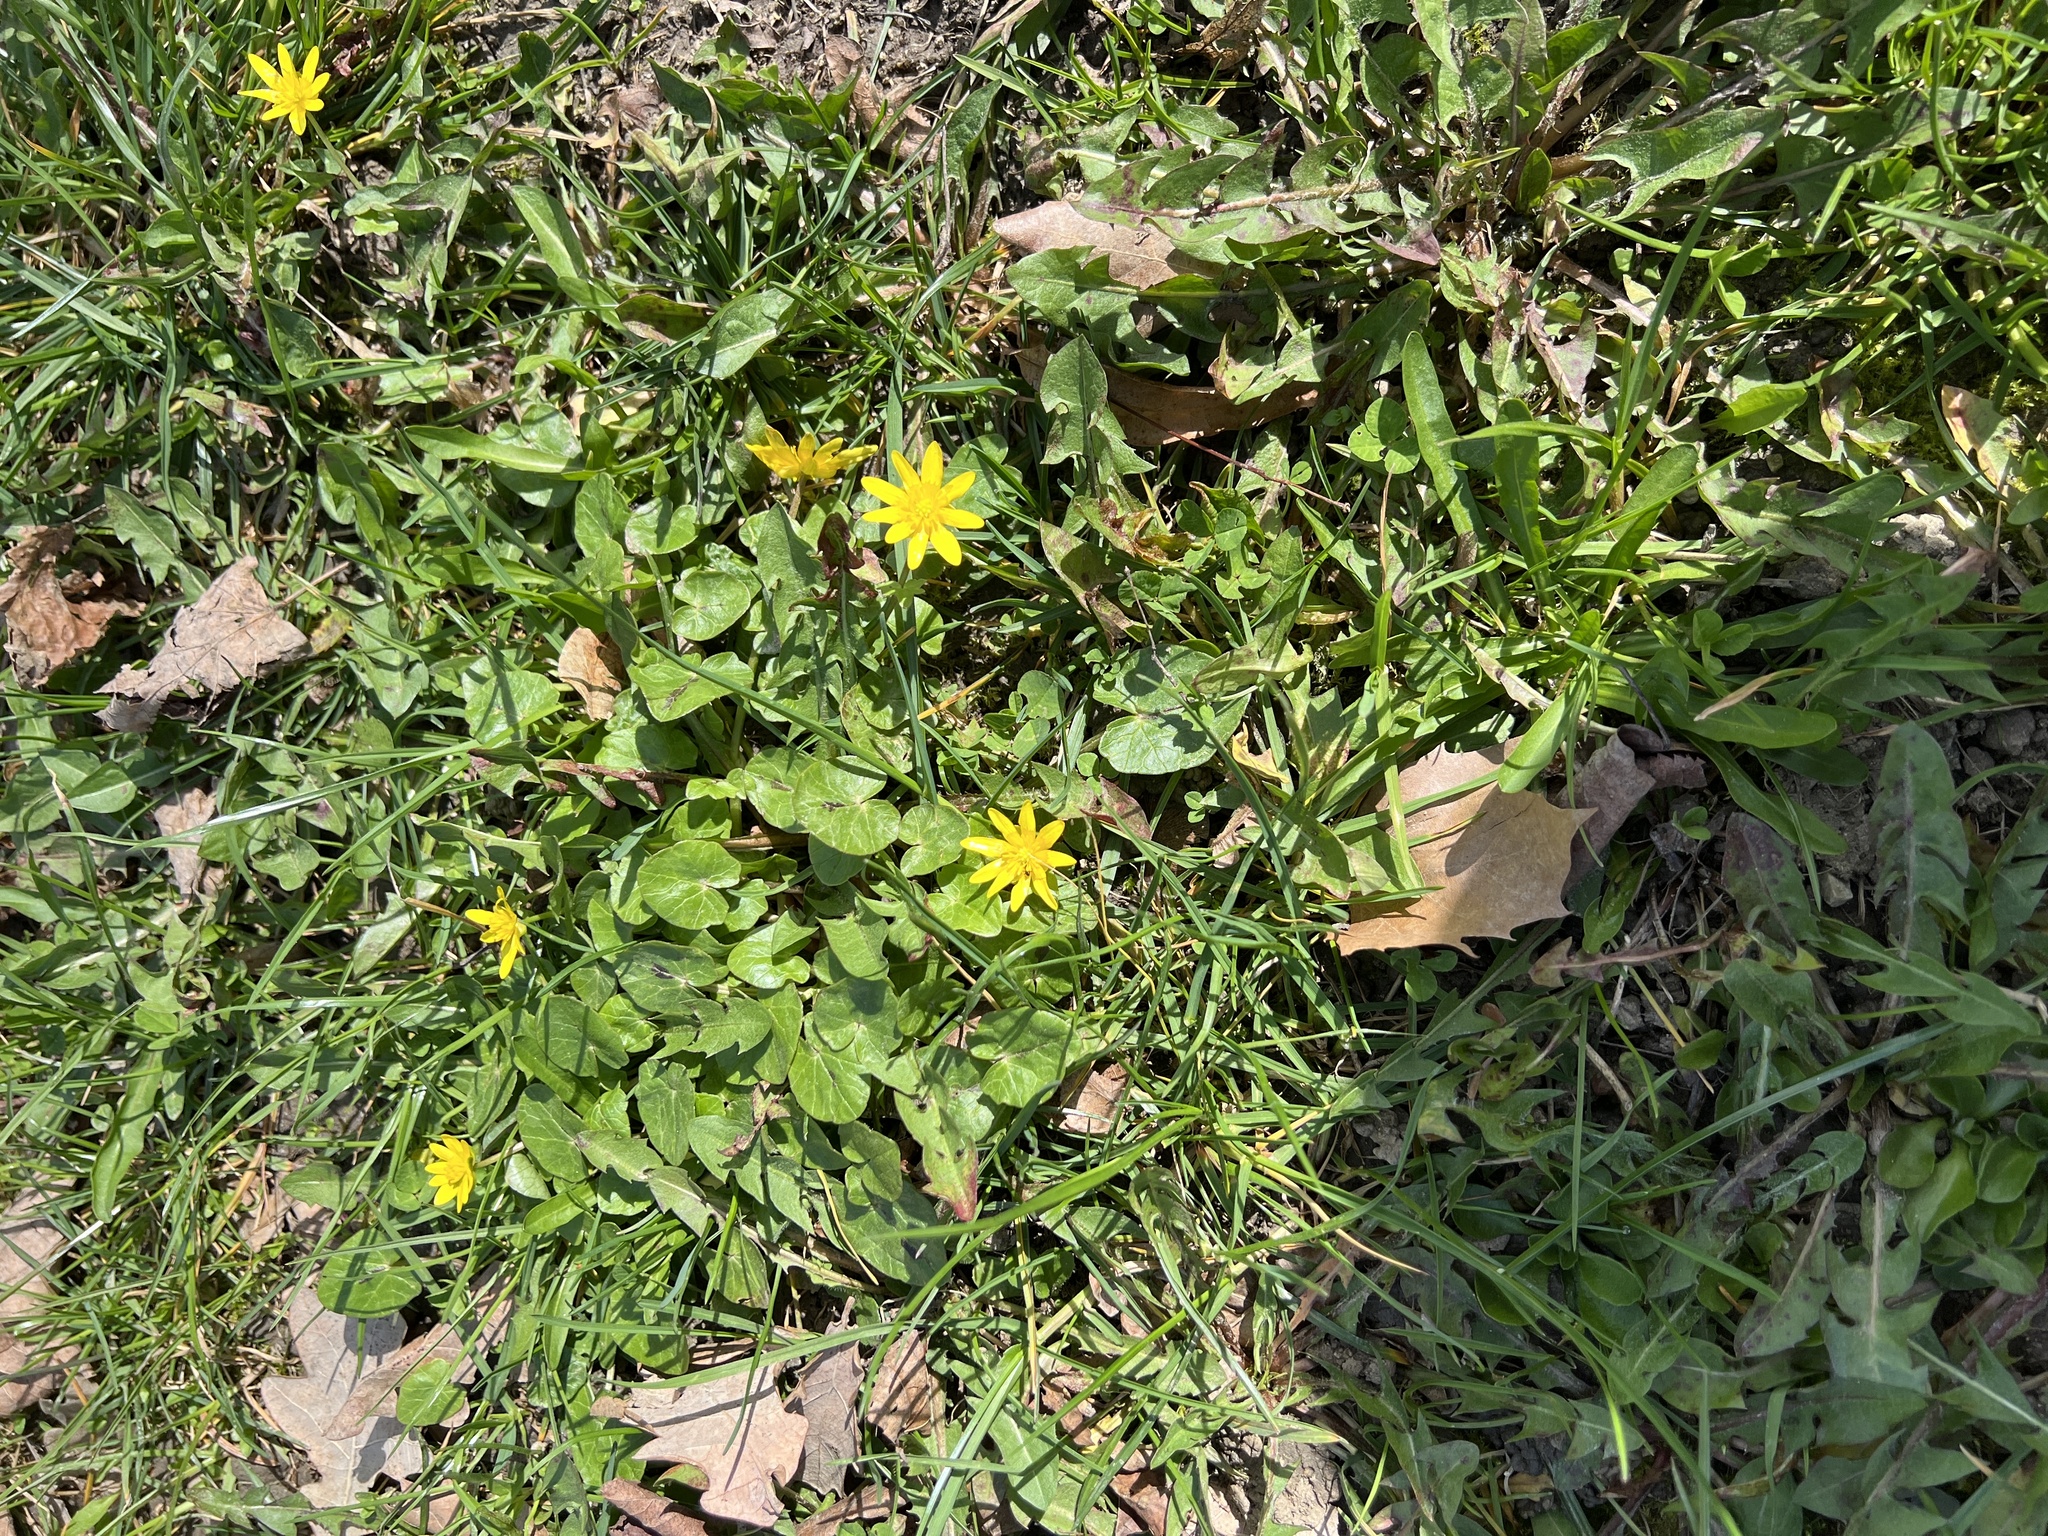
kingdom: Plantae
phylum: Tracheophyta
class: Magnoliopsida
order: Ranunculales
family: Ranunculaceae
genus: Ficaria
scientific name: Ficaria verna
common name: Lesser celandine
